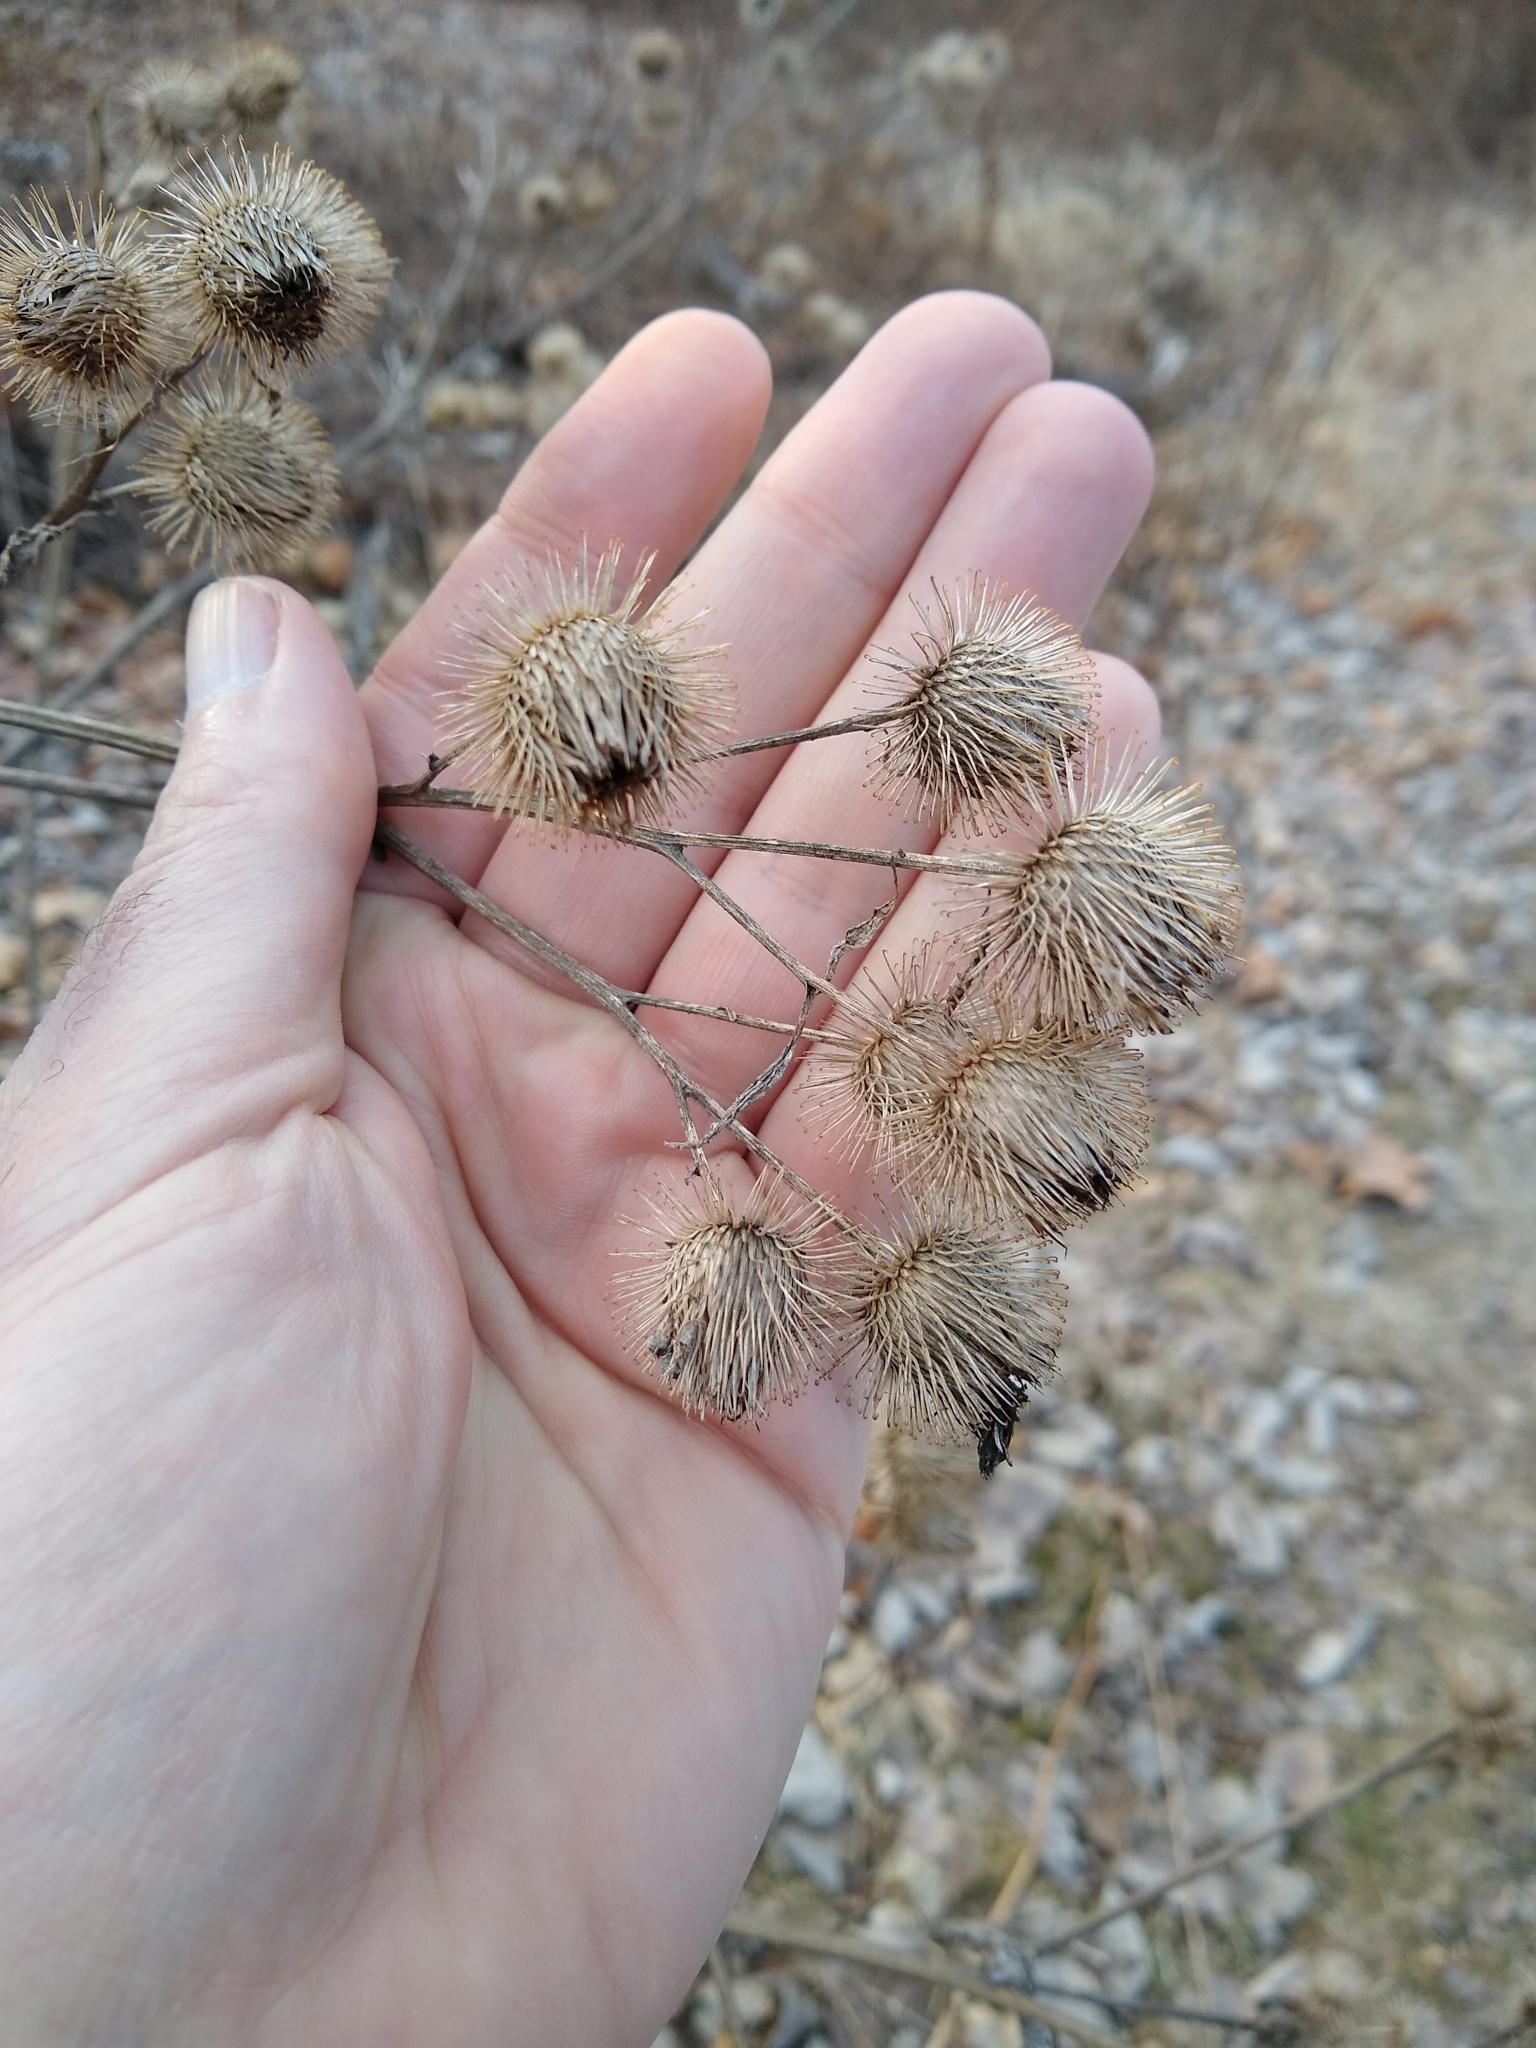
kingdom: Plantae
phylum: Tracheophyta
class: Magnoliopsida
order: Asterales
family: Asteraceae
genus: Arctium
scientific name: Arctium lappa
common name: Greater burdock
